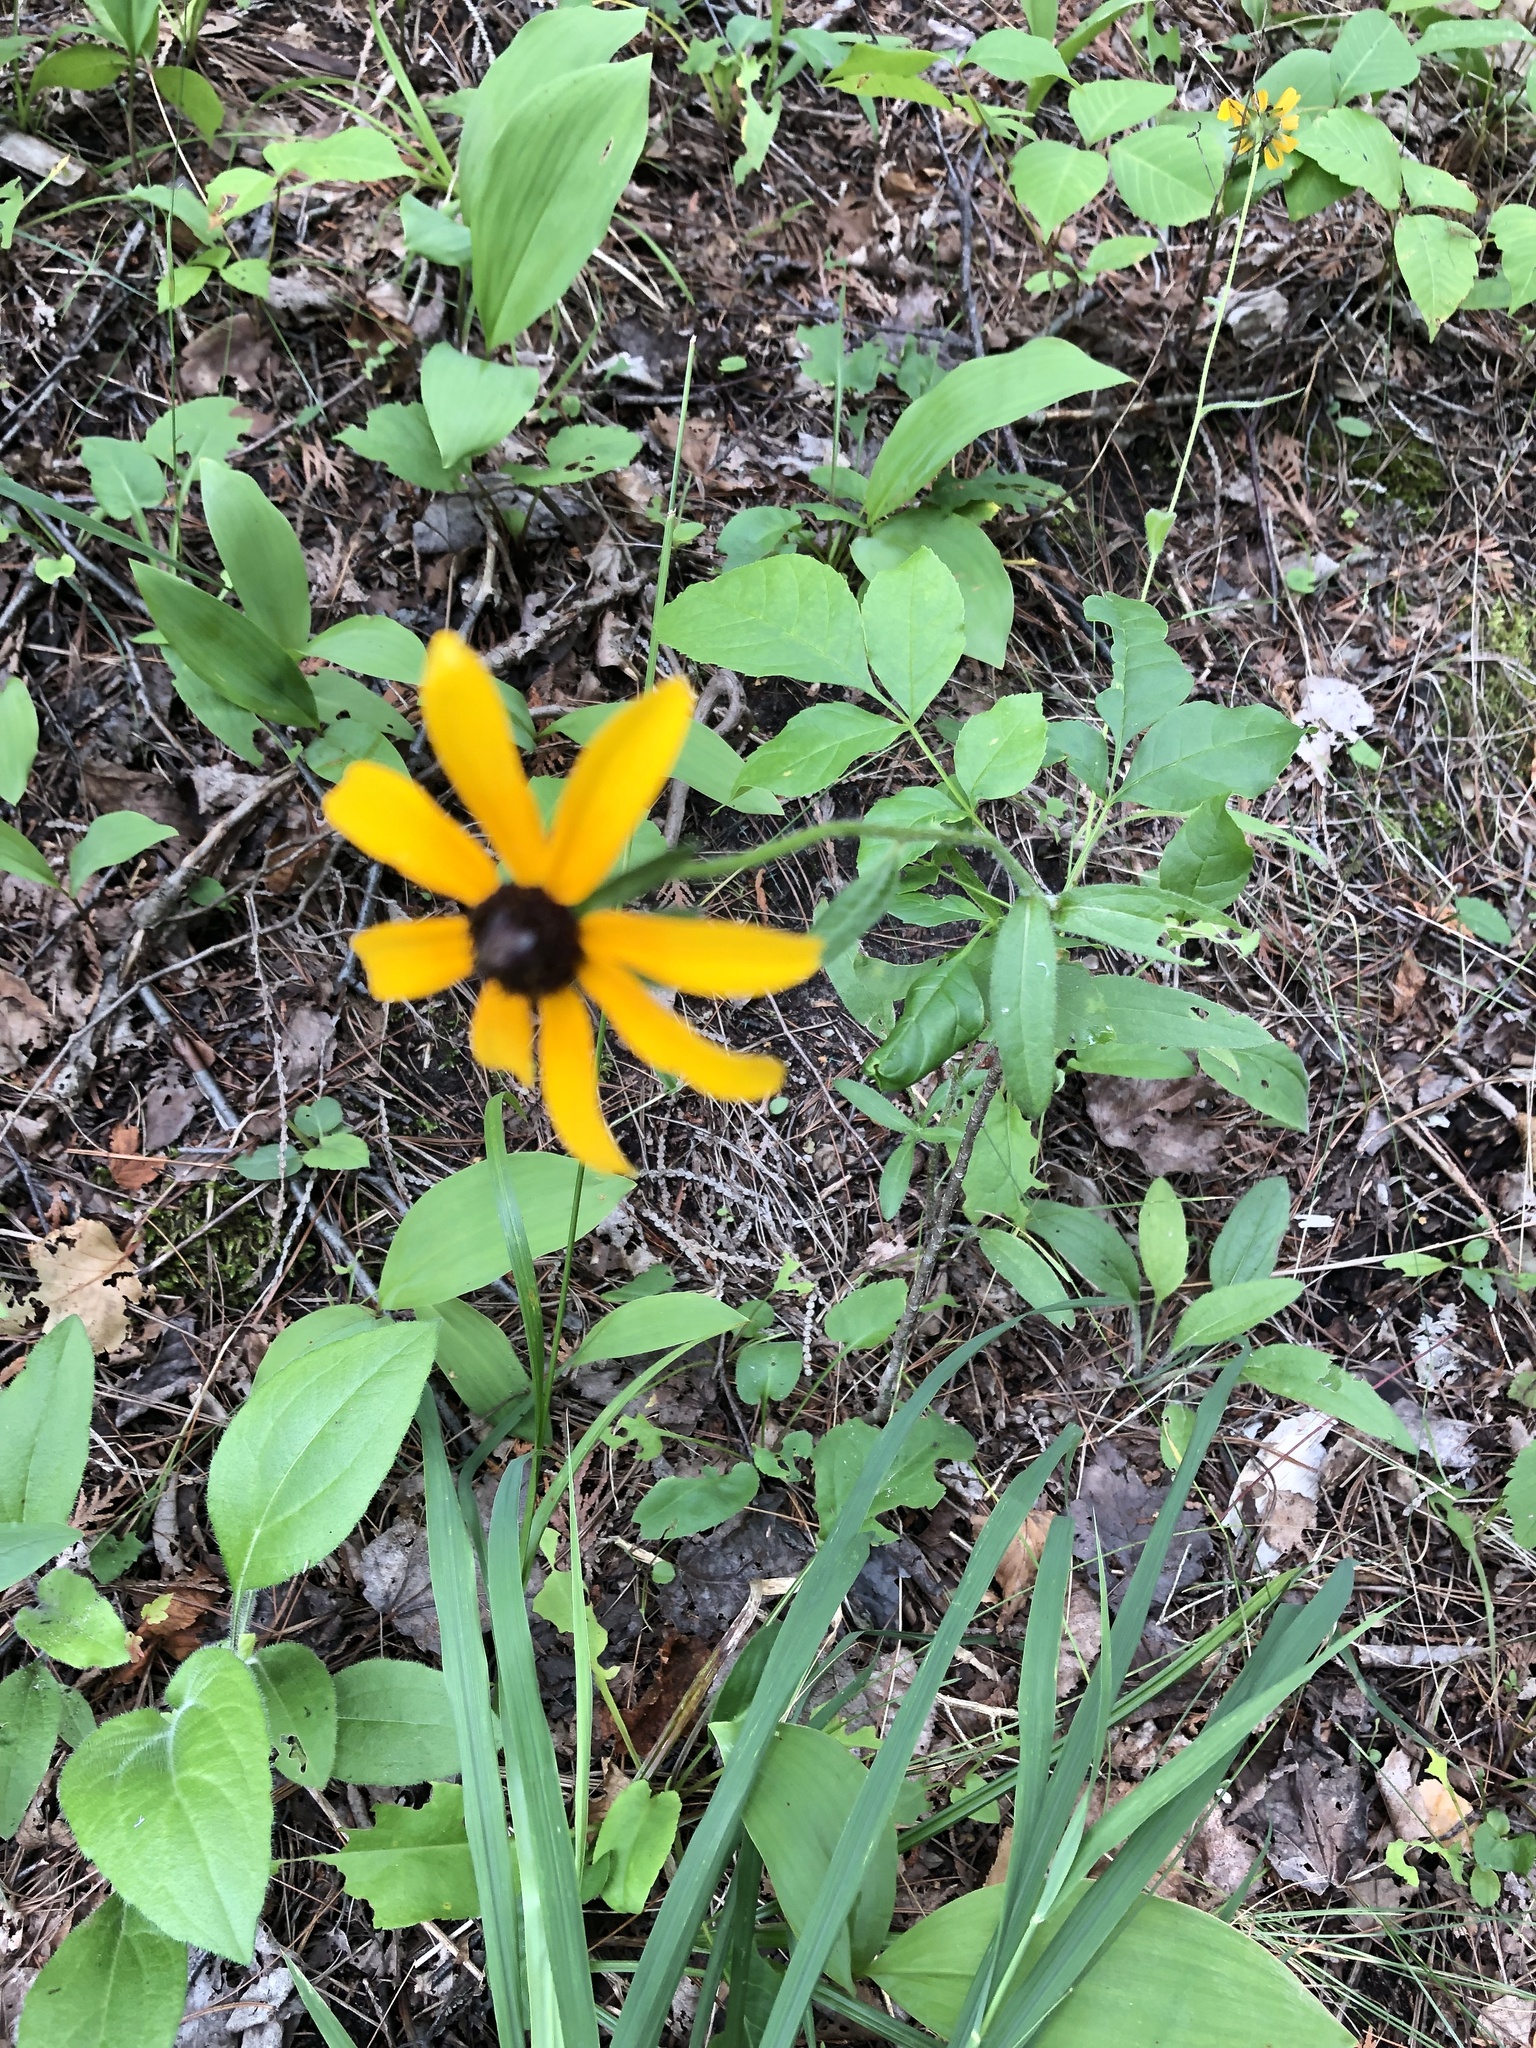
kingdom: Plantae
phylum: Tracheophyta
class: Magnoliopsida
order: Asterales
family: Asteraceae
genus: Rudbeckia
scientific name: Rudbeckia hirta
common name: Black-eyed-susan
